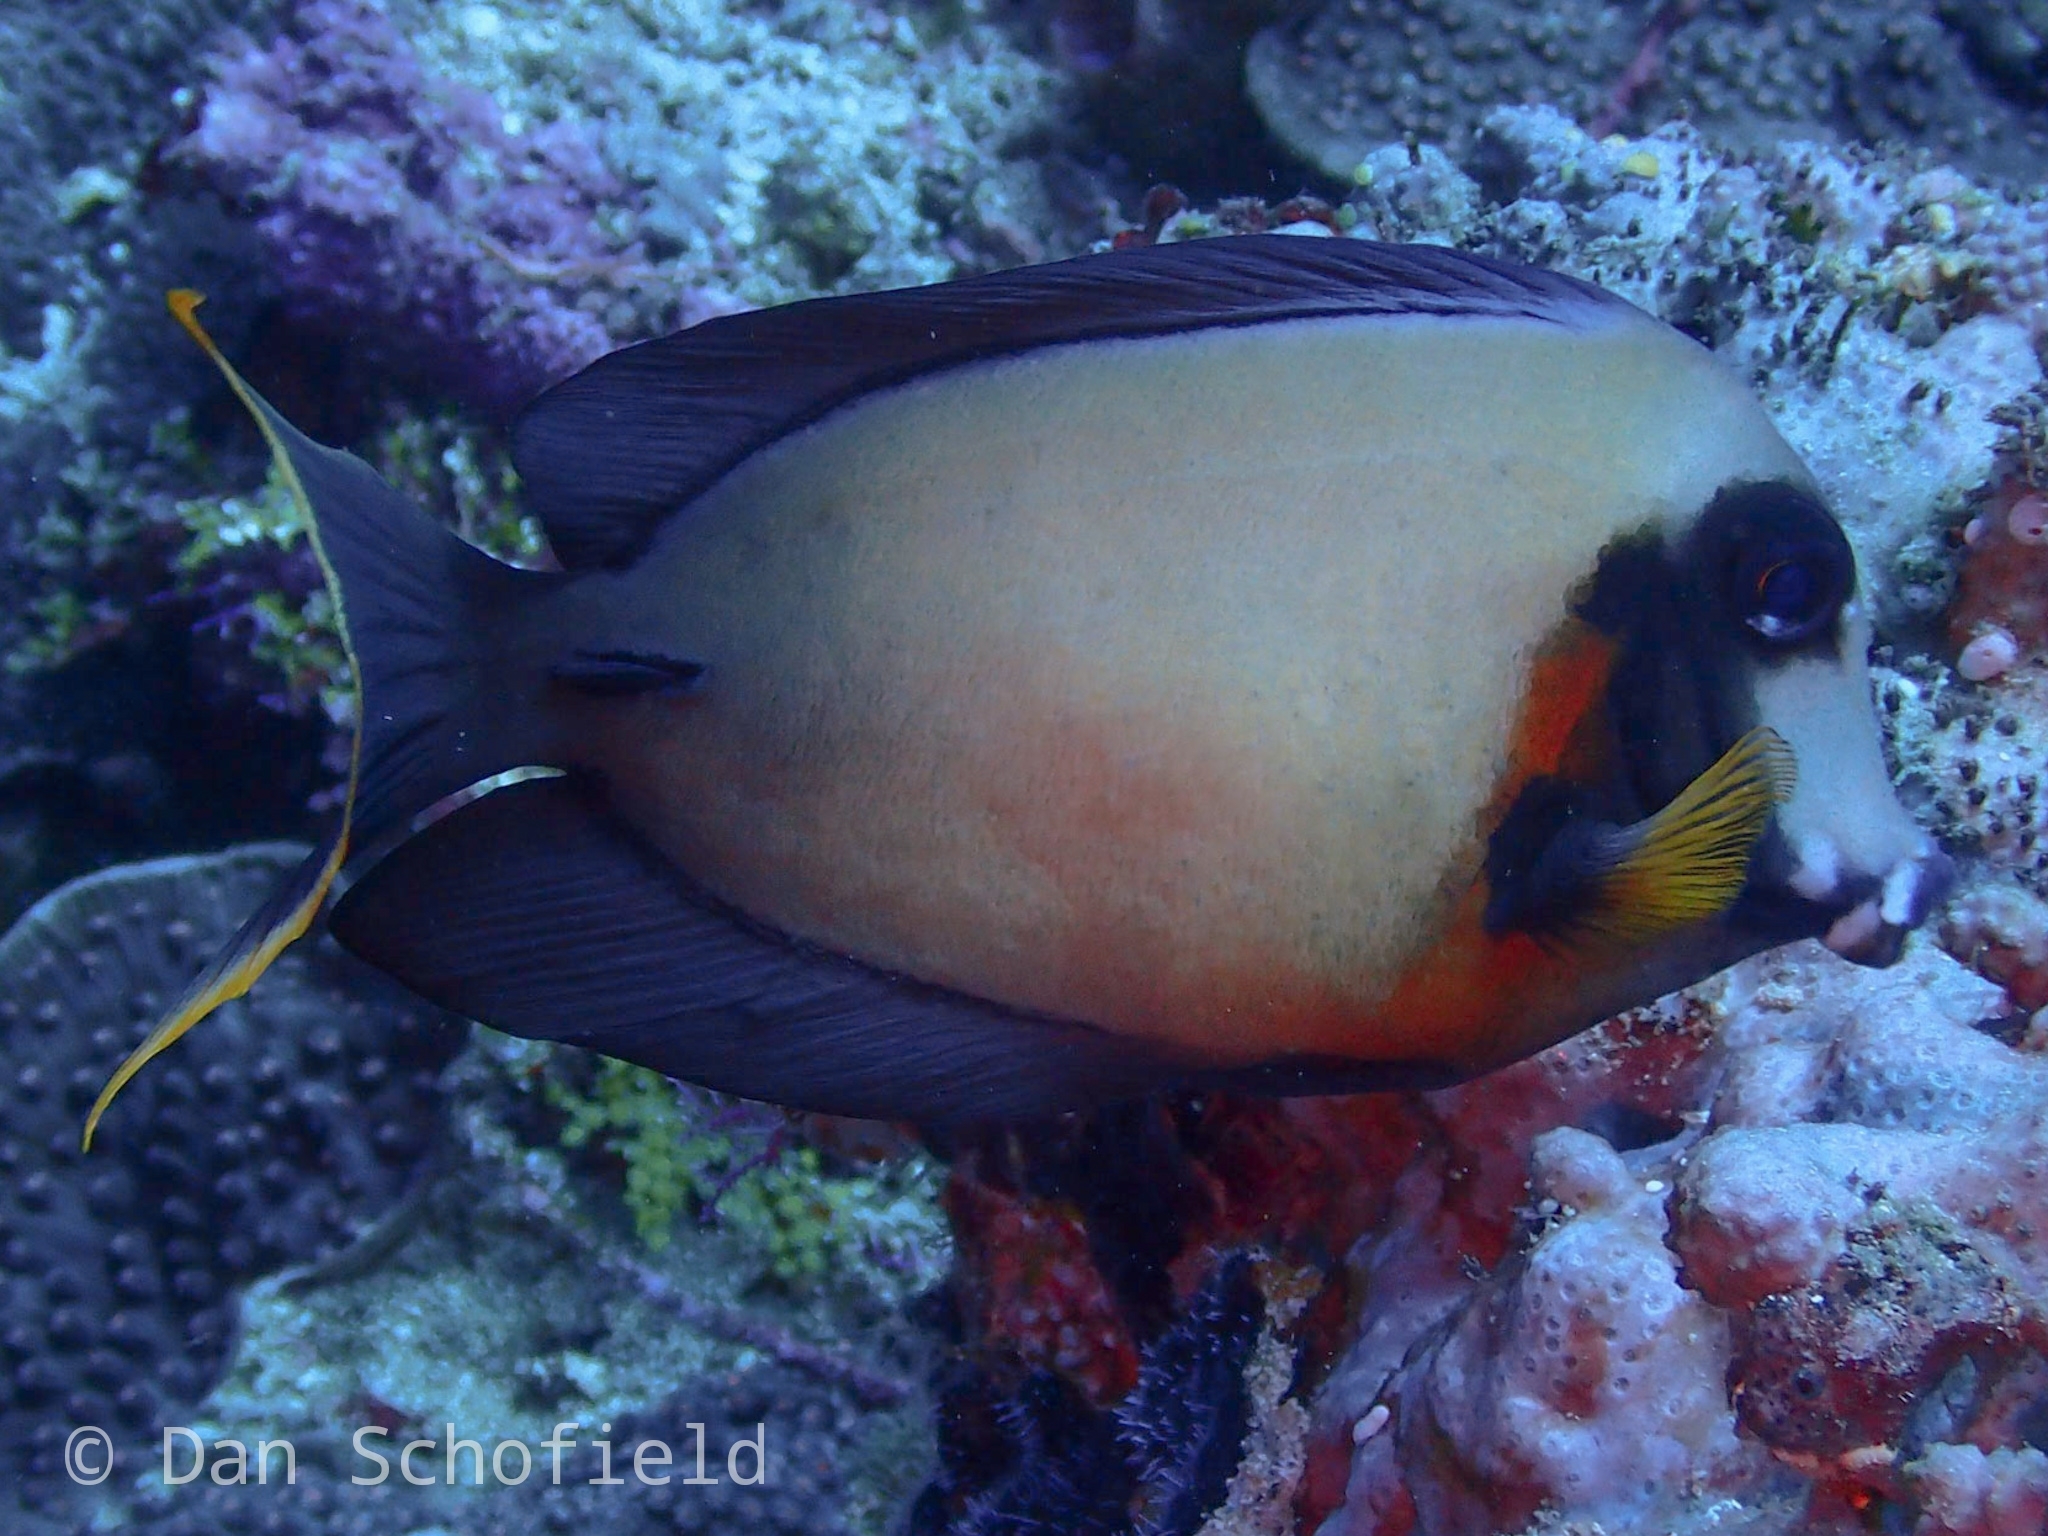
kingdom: Animalia
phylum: Chordata
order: Perciformes
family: Acanthuridae
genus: Acanthurus
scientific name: Acanthurus pyroferus
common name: Chocolate surgeonfish
